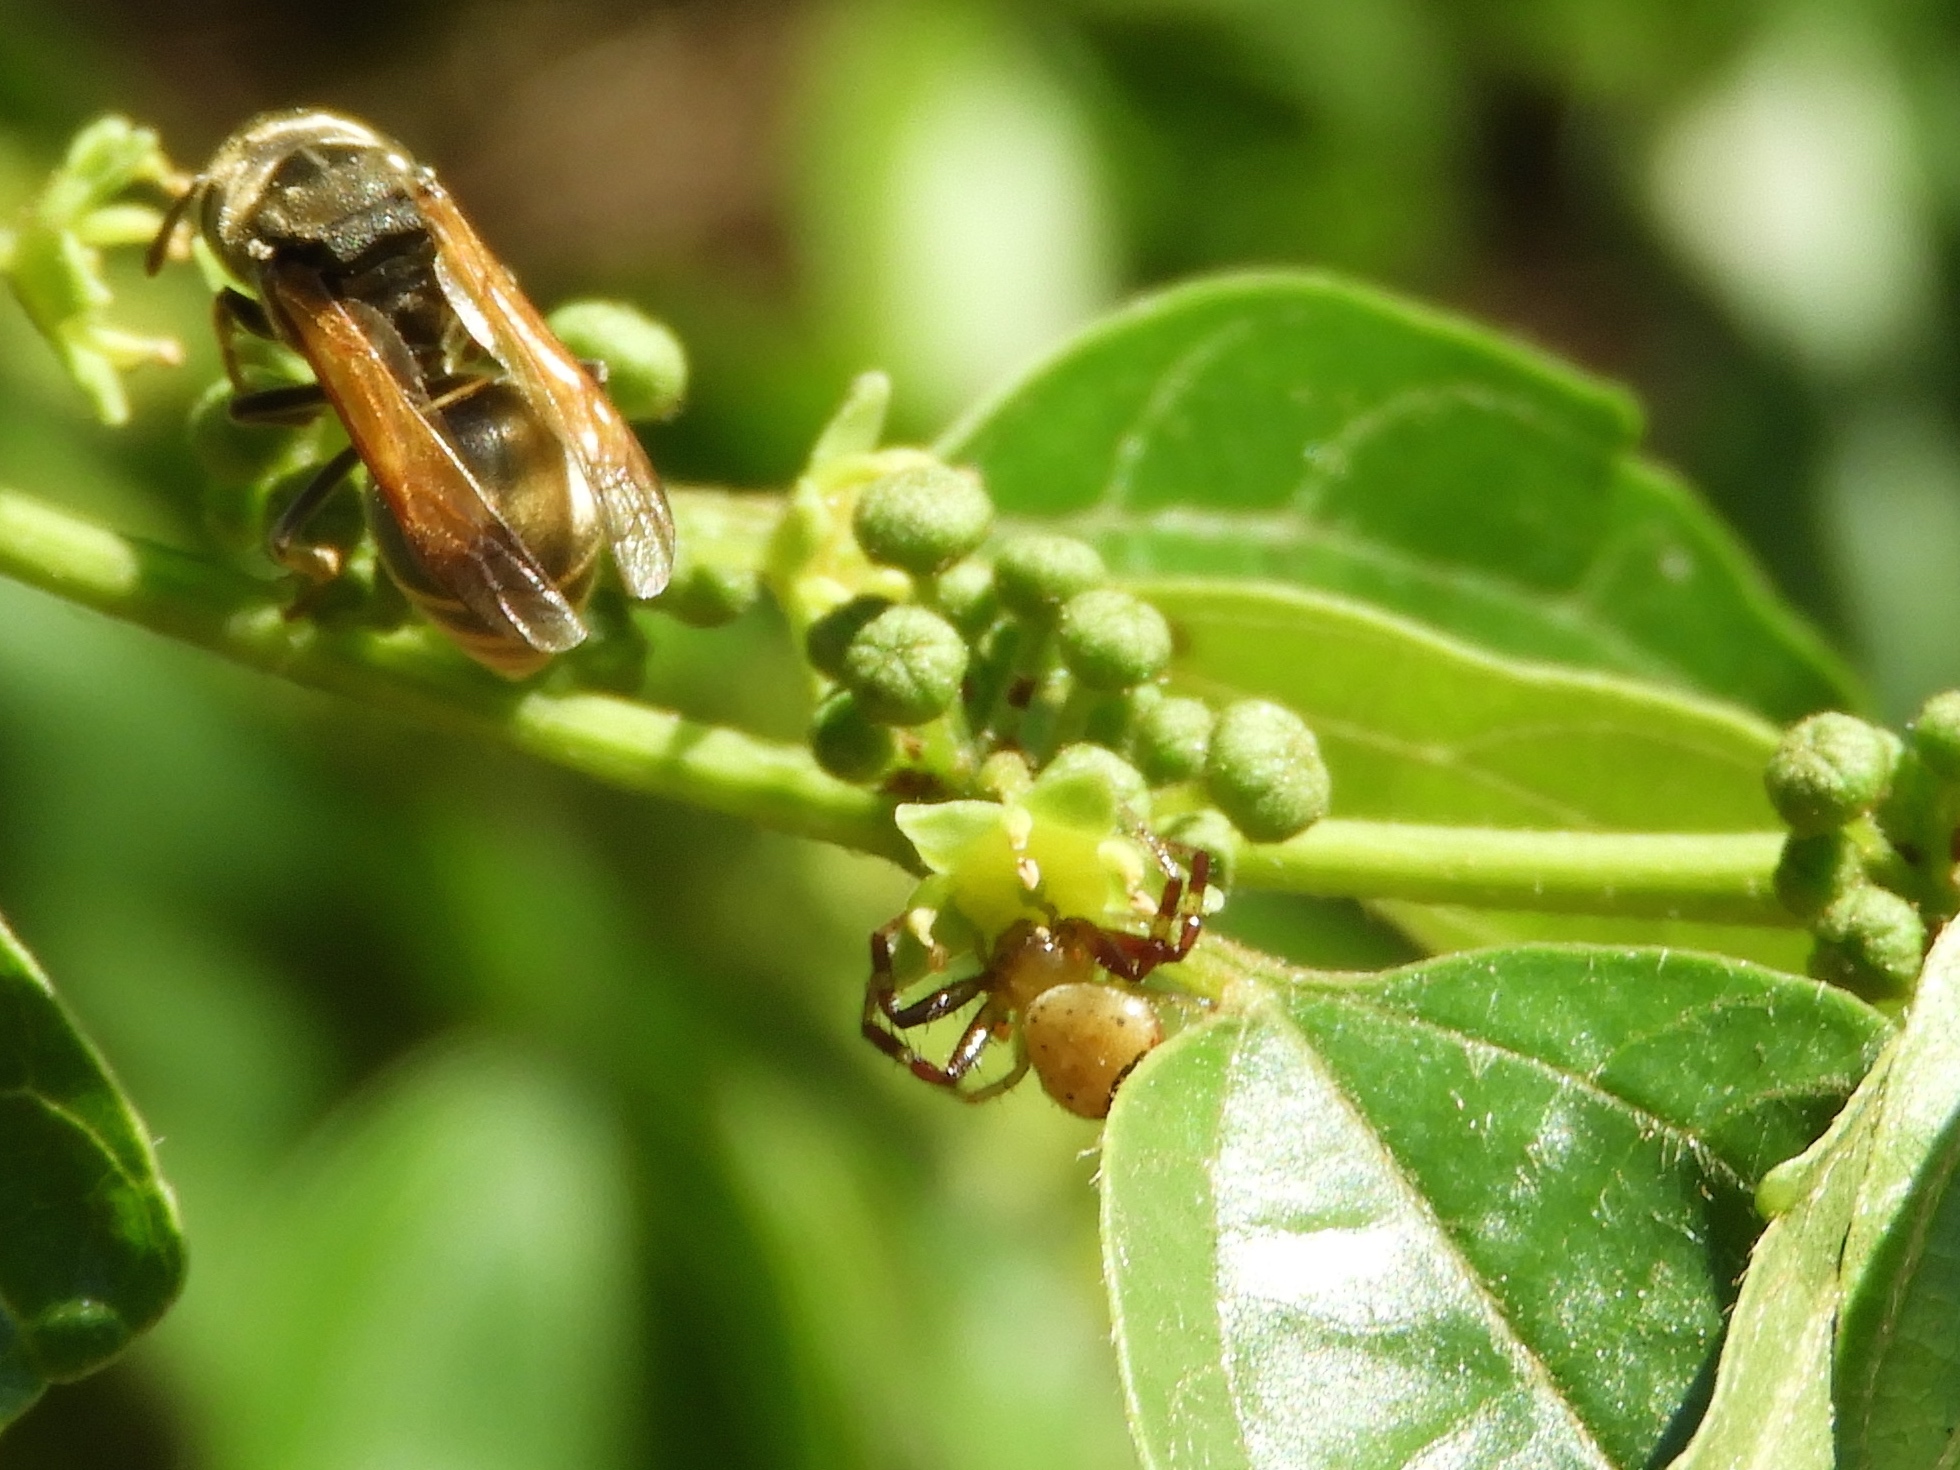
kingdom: Animalia
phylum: Arthropoda
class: Arachnida
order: Araneae
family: Thomisidae
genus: Synema
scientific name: Synema parvulum
